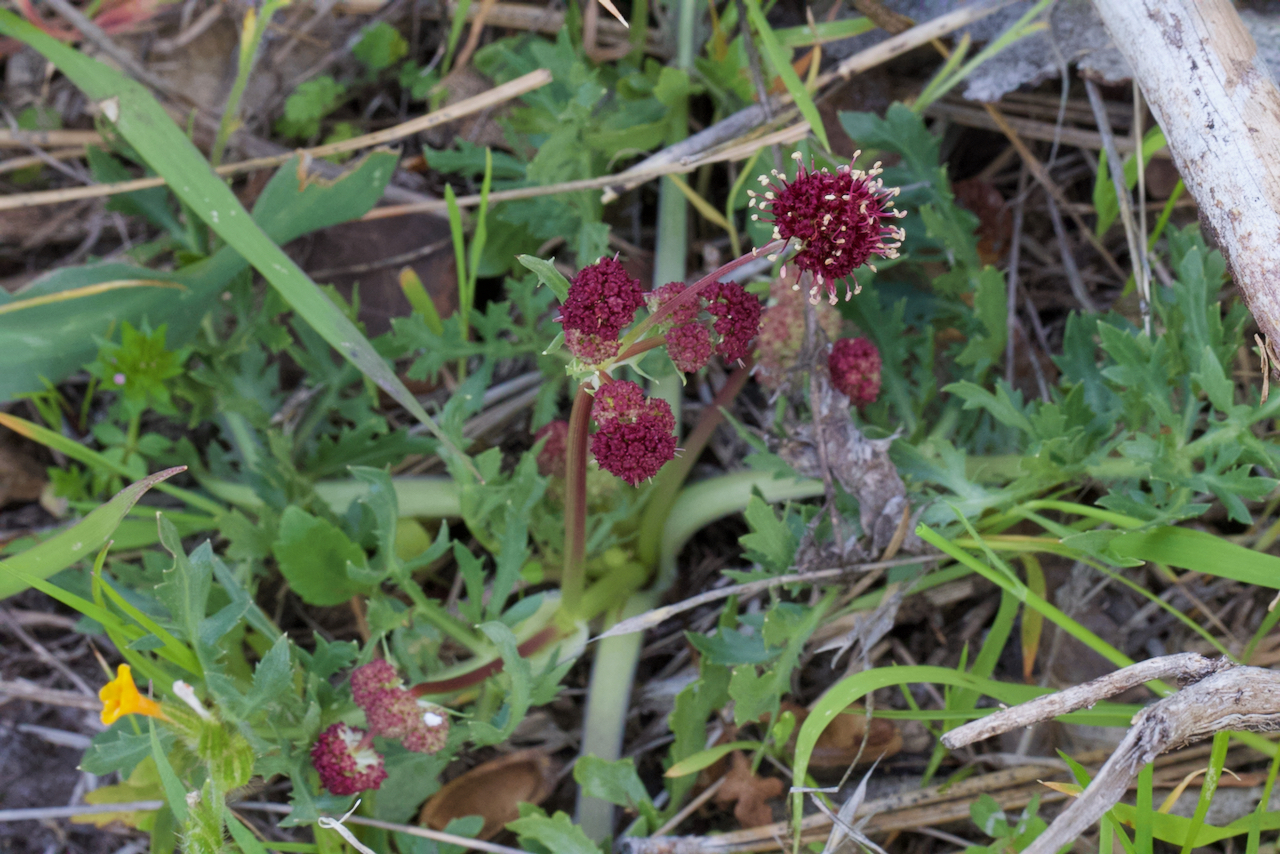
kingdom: Plantae
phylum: Tracheophyta
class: Magnoliopsida
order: Apiales
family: Apiaceae
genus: Sanicula
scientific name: Sanicula bipinnatifida
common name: Shoe-buttons
